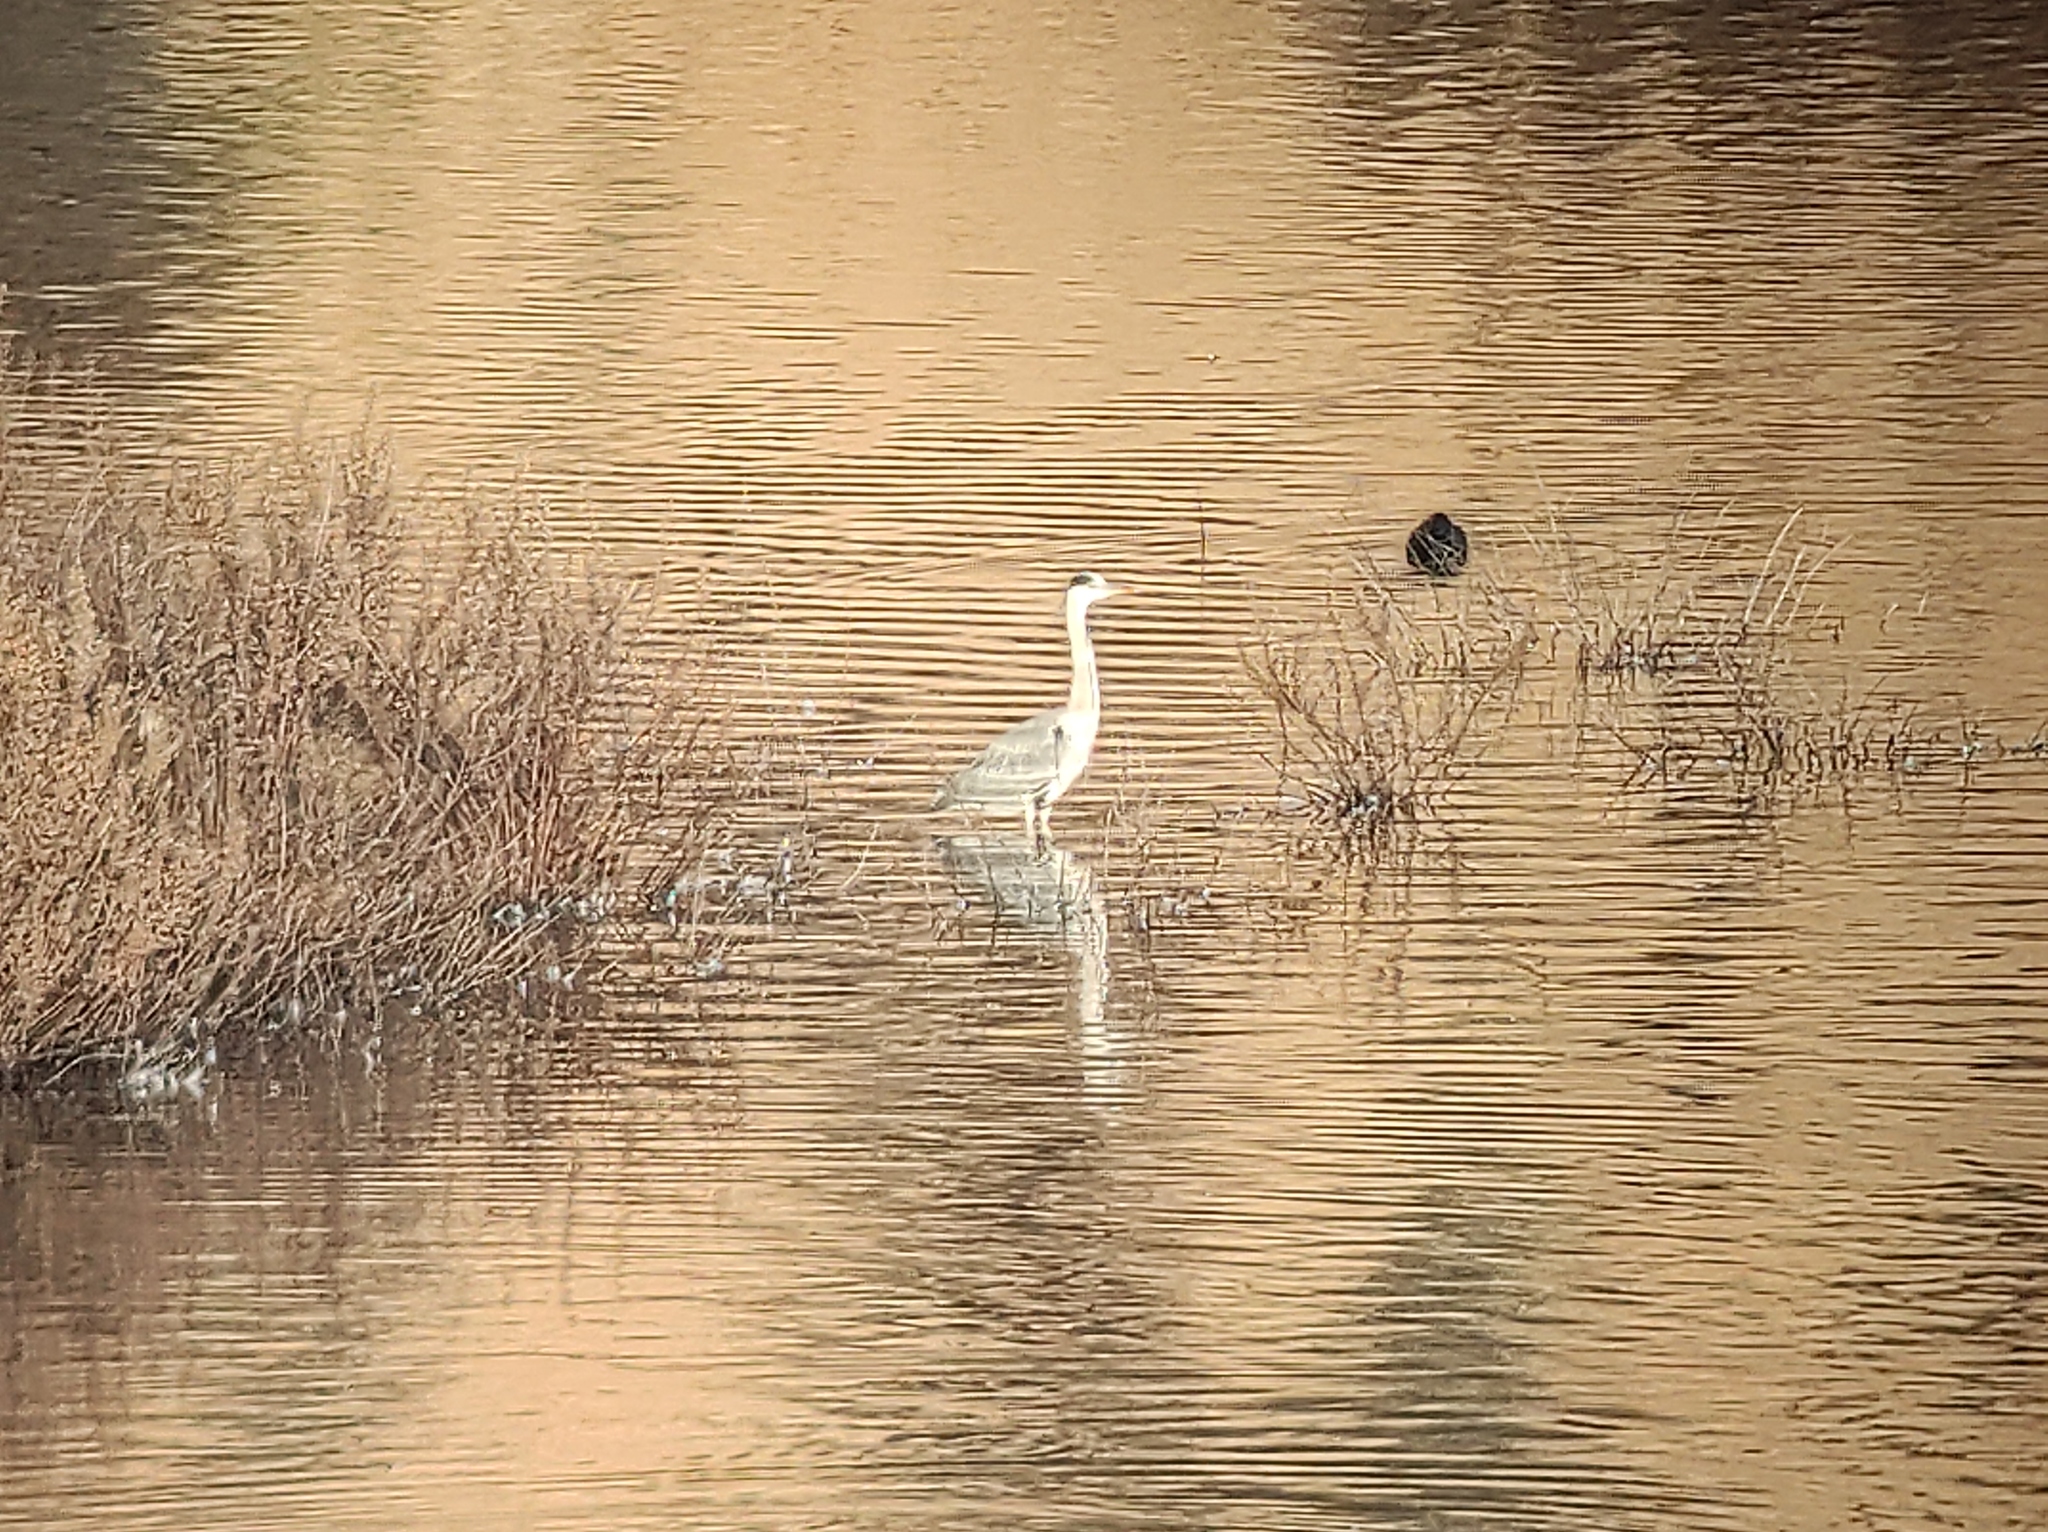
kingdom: Animalia
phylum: Chordata
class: Aves
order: Pelecaniformes
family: Ardeidae
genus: Ardea
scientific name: Ardea cinerea
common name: Grey heron
